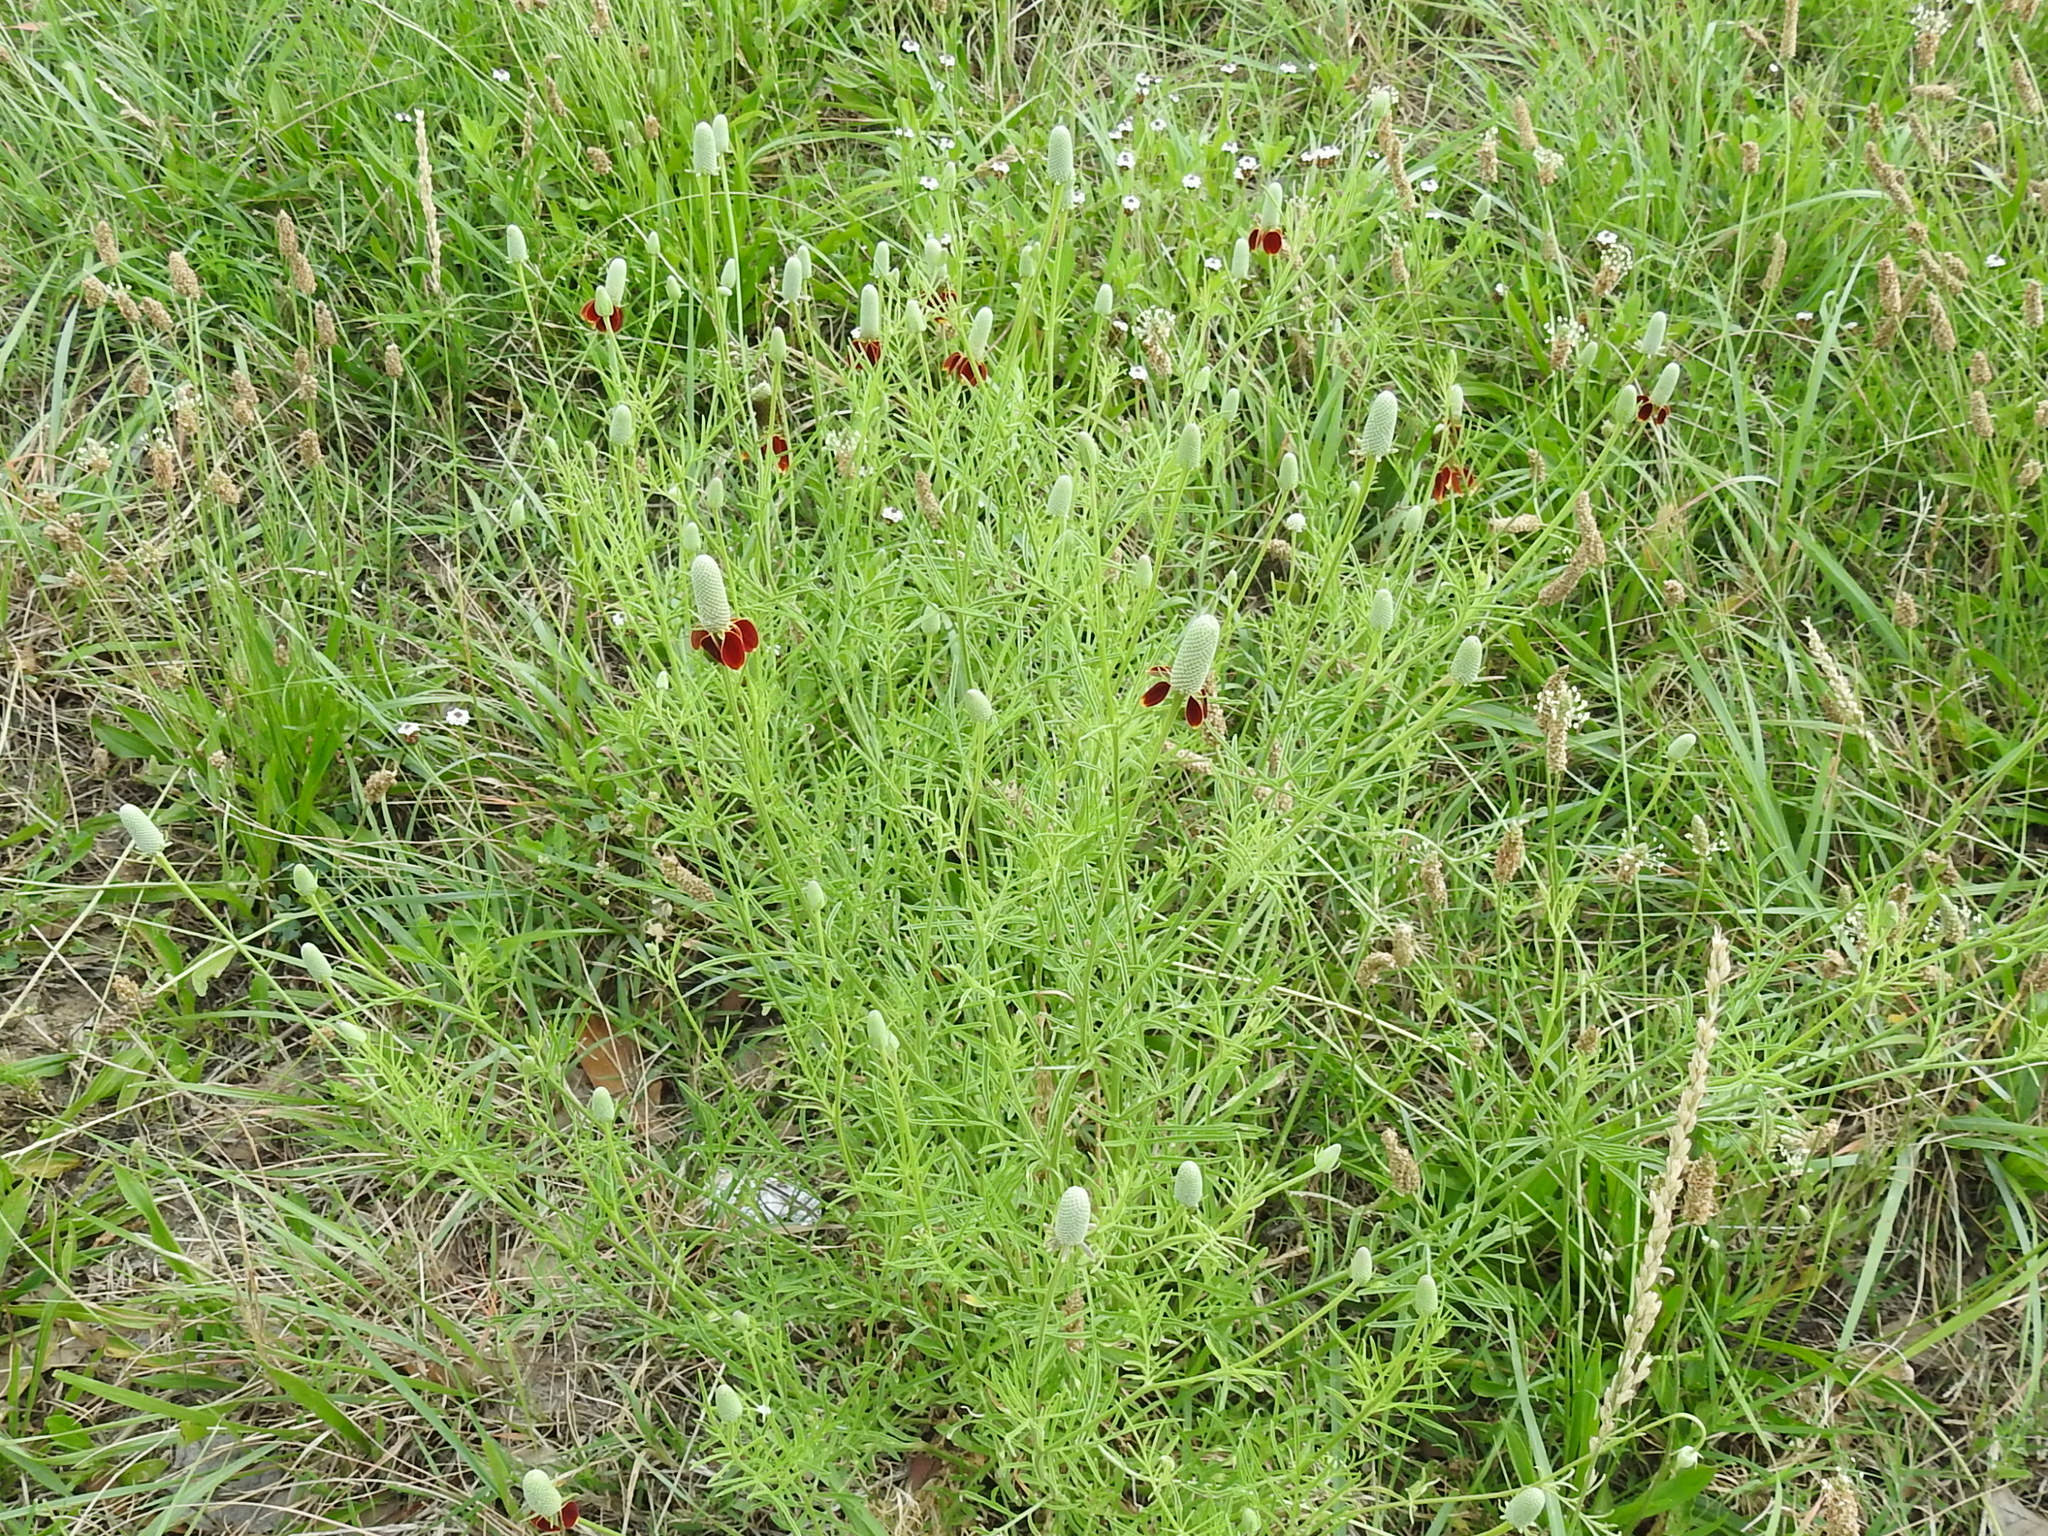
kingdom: Plantae
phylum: Tracheophyta
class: Magnoliopsida
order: Asterales
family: Asteraceae
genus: Ratibida
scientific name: Ratibida columnifera
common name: Prairie coneflower
